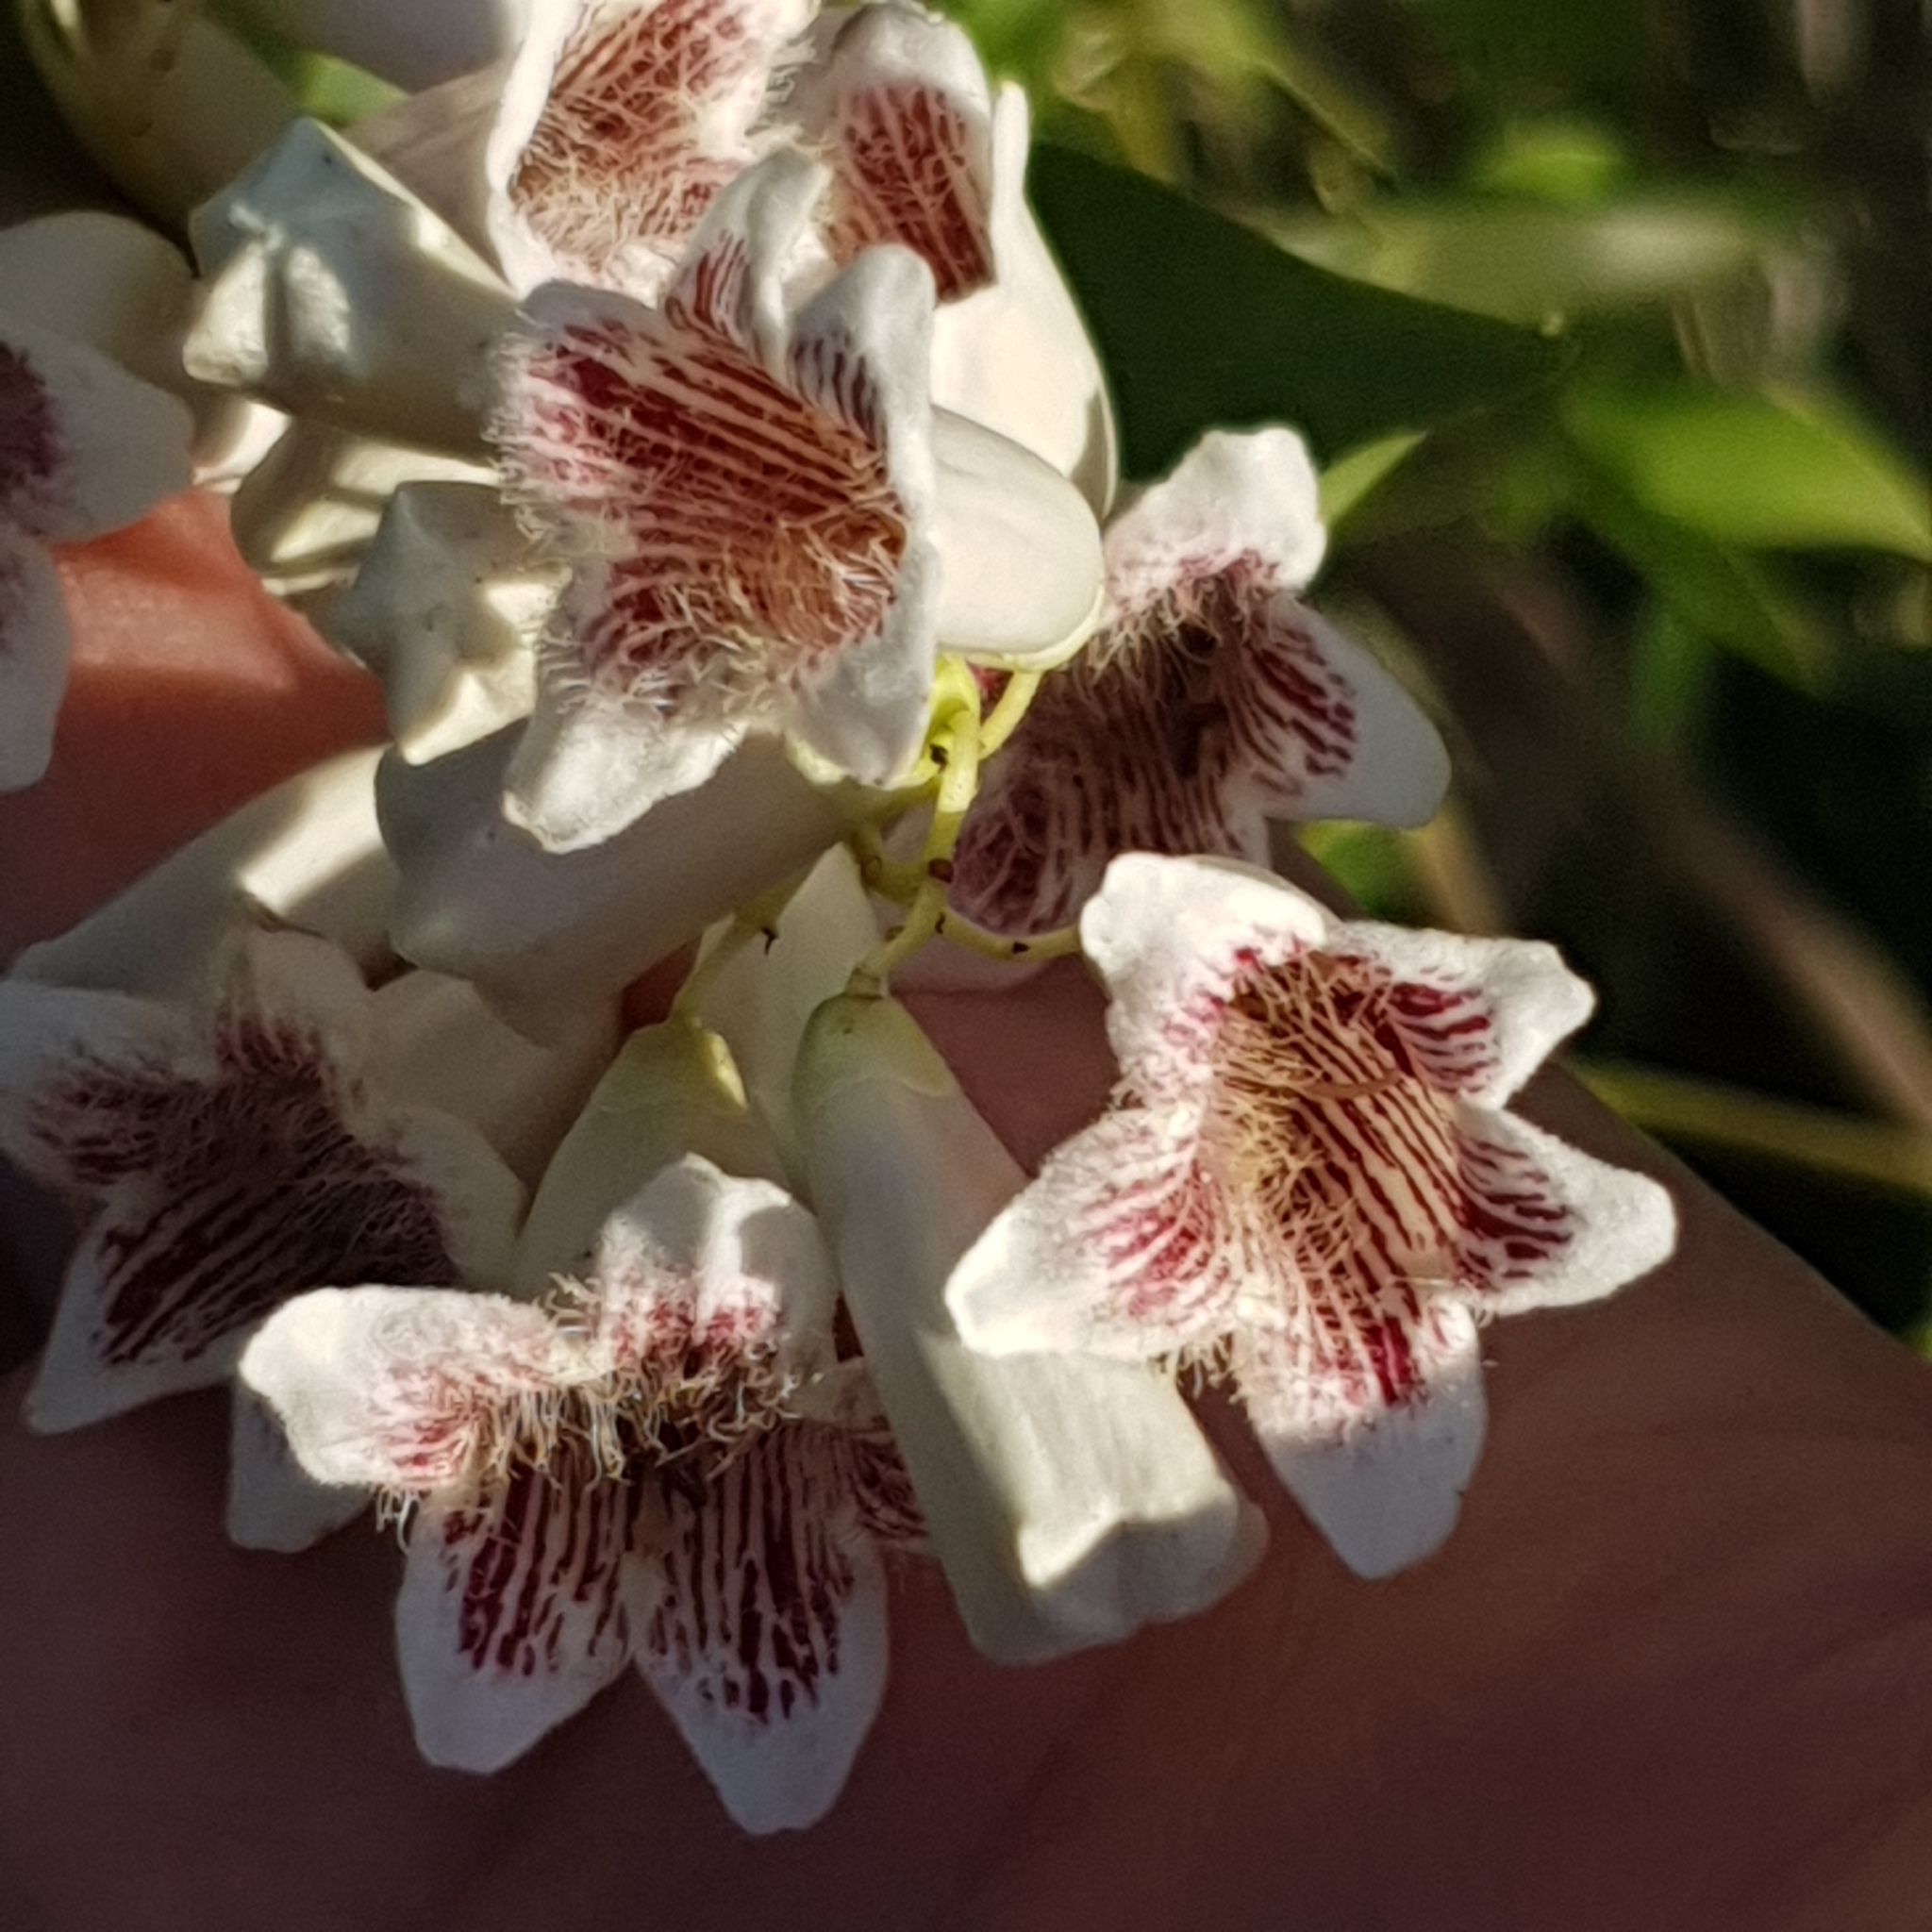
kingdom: Plantae
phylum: Tracheophyta
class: Magnoliopsida
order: Lamiales
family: Bignoniaceae
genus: Pandorea
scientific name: Pandorea pandorana
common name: Wonga-wonga-vine
